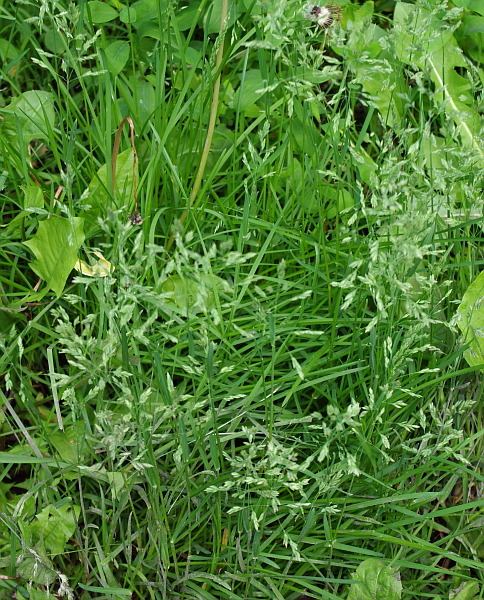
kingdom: Plantae
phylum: Tracheophyta
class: Liliopsida
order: Poales
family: Poaceae
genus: Poa
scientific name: Poa annua
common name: Annual bluegrass
